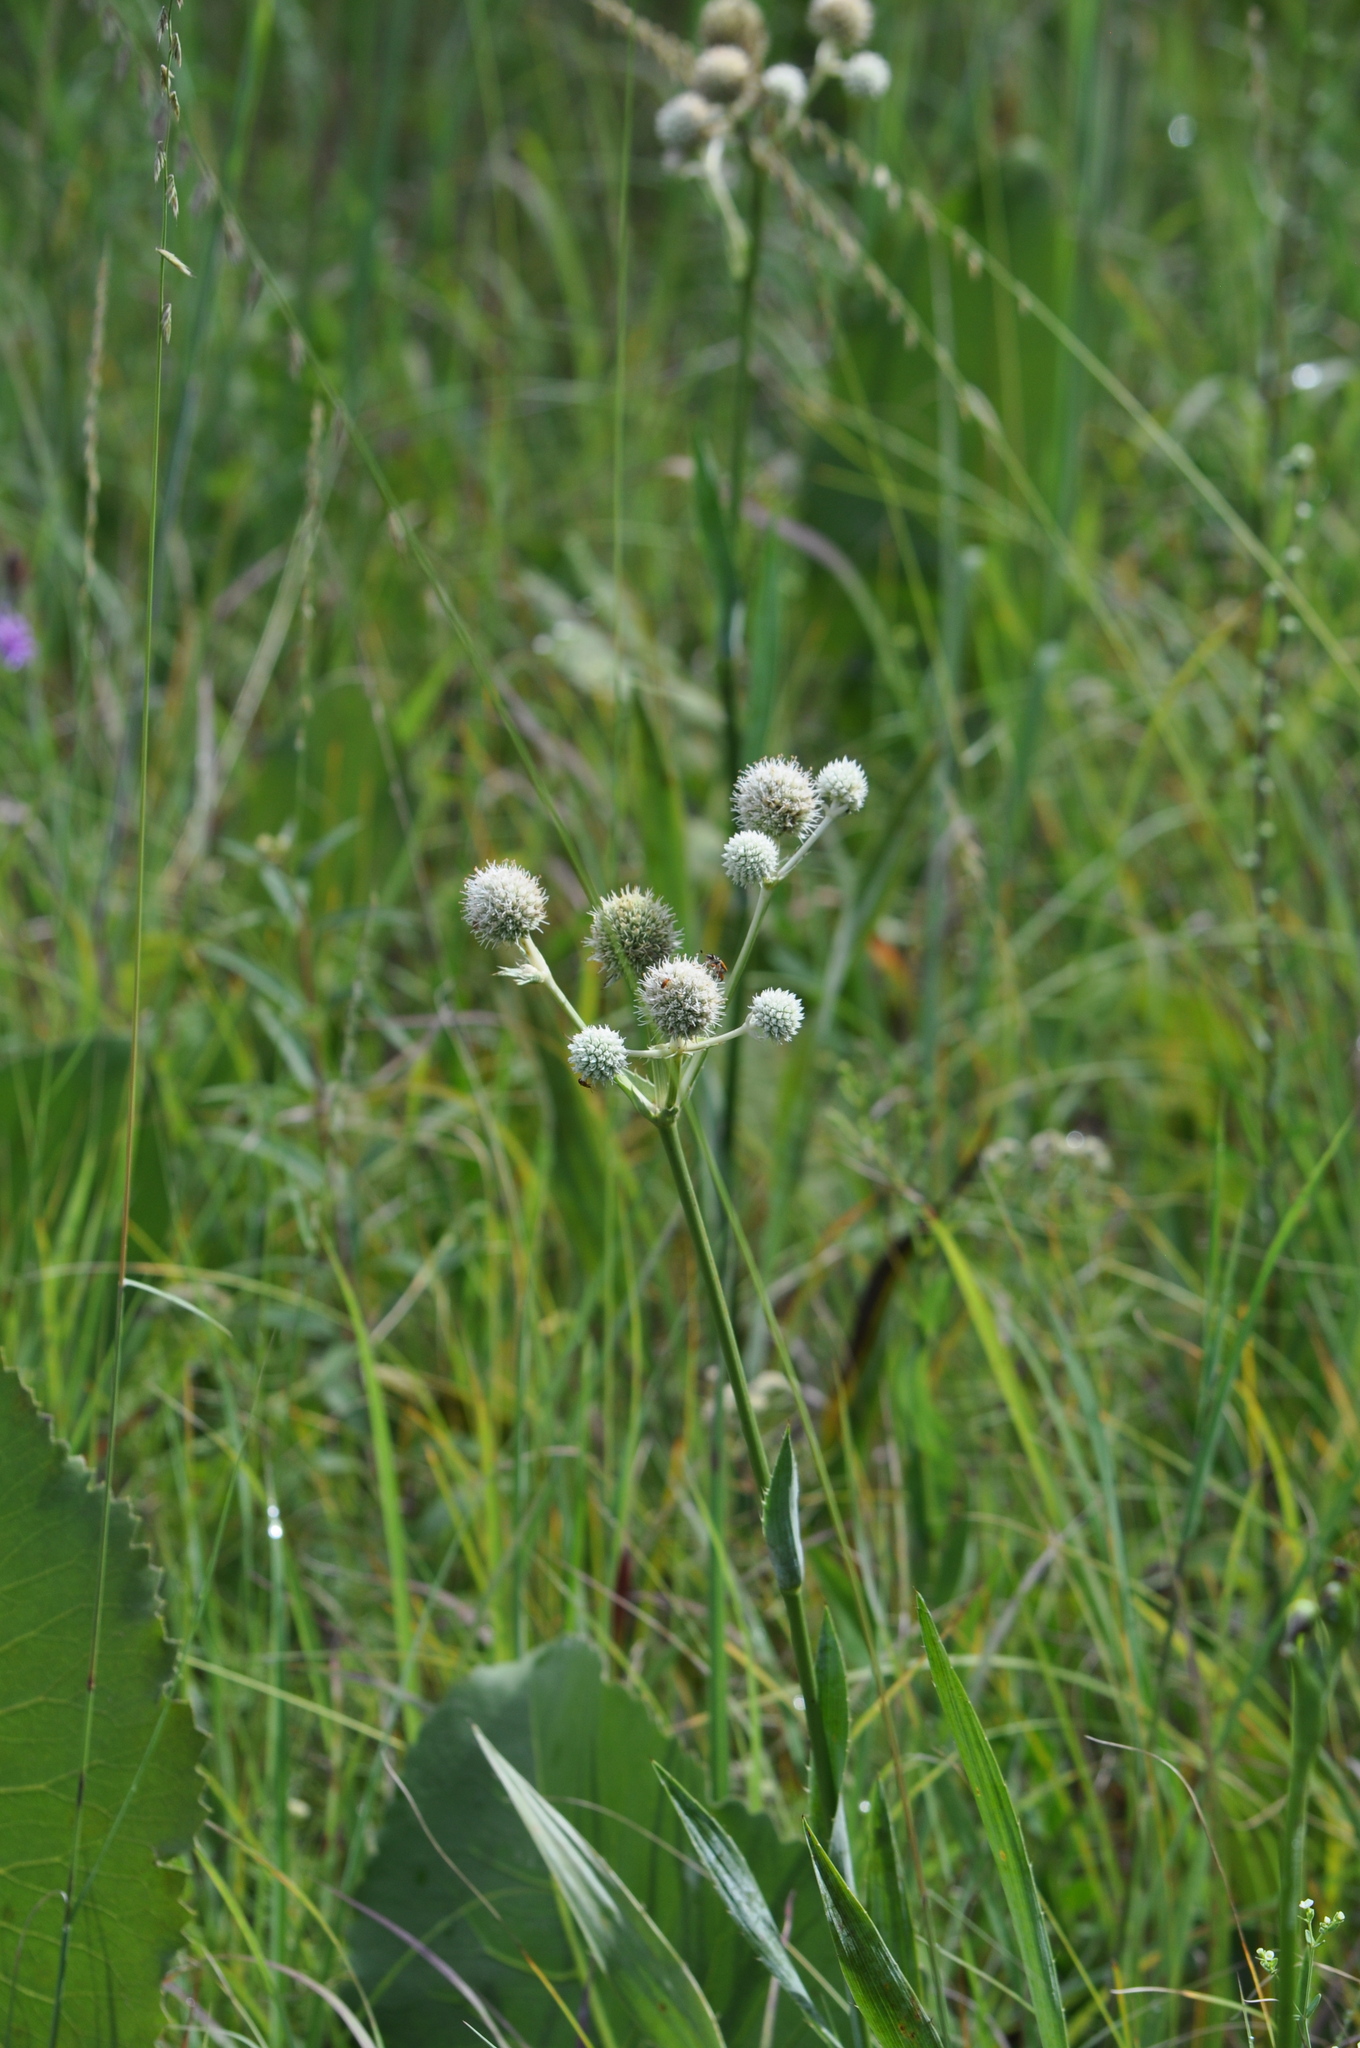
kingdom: Plantae
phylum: Tracheophyta
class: Magnoliopsida
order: Apiales
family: Apiaceae
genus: Eryngium
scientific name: Eryngium yuccifolium
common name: Button eryngo
